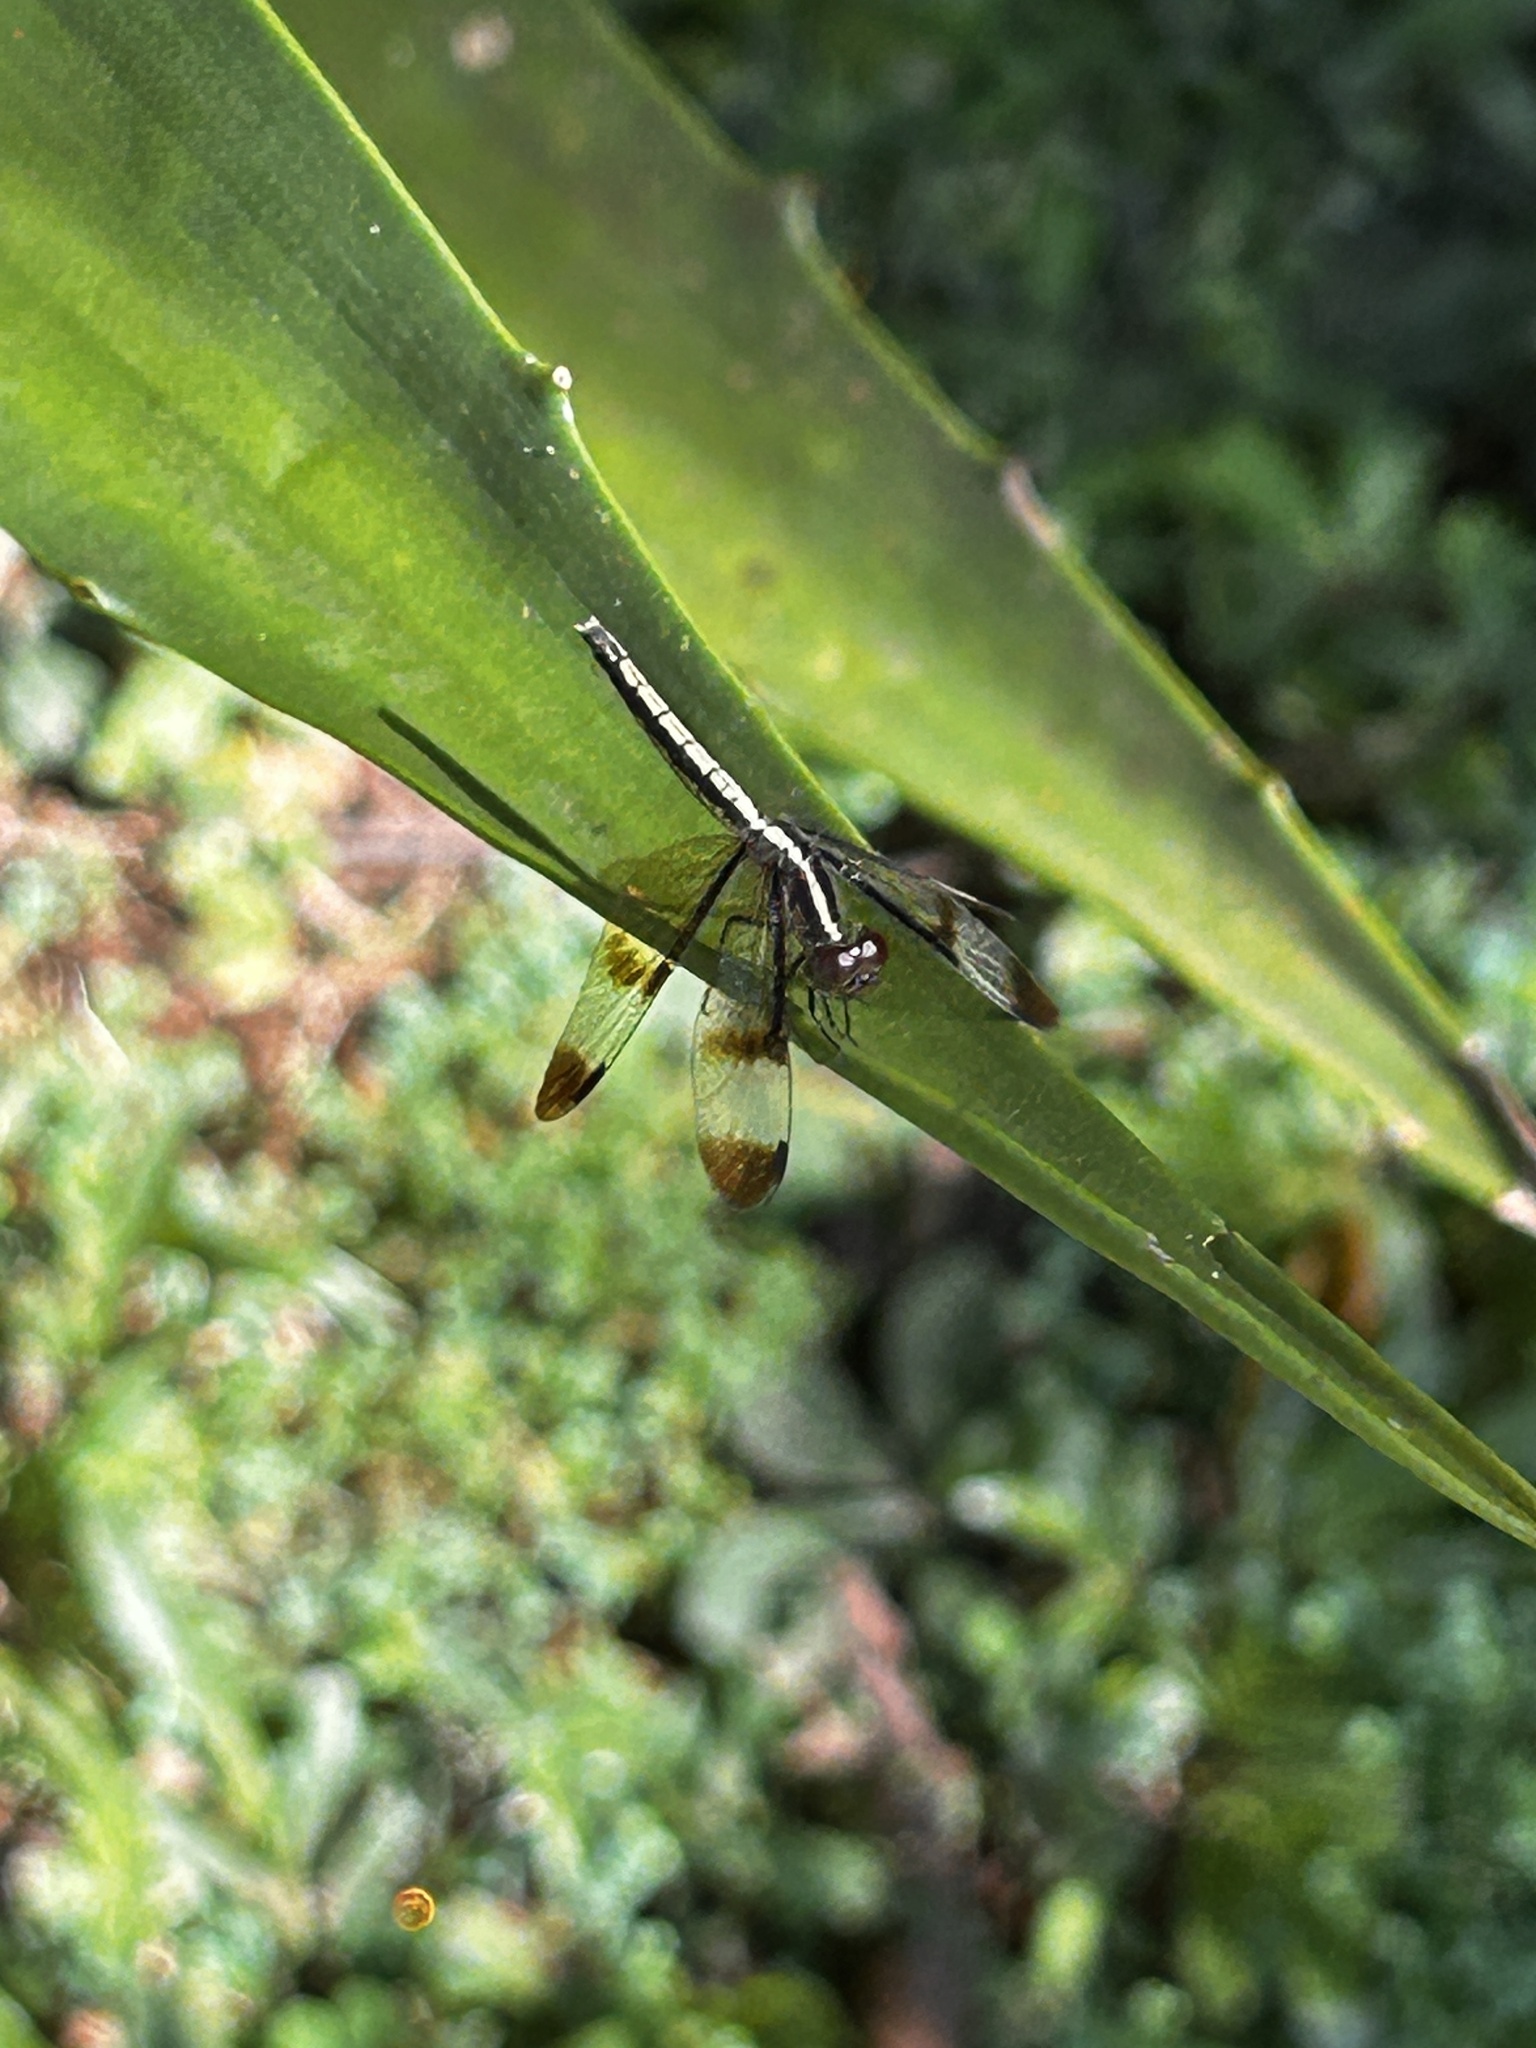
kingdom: Animalia
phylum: Arthropoda
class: Insecta
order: Odonata
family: Libellulidae
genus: Neurothemis
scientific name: Neurothemis tullia
